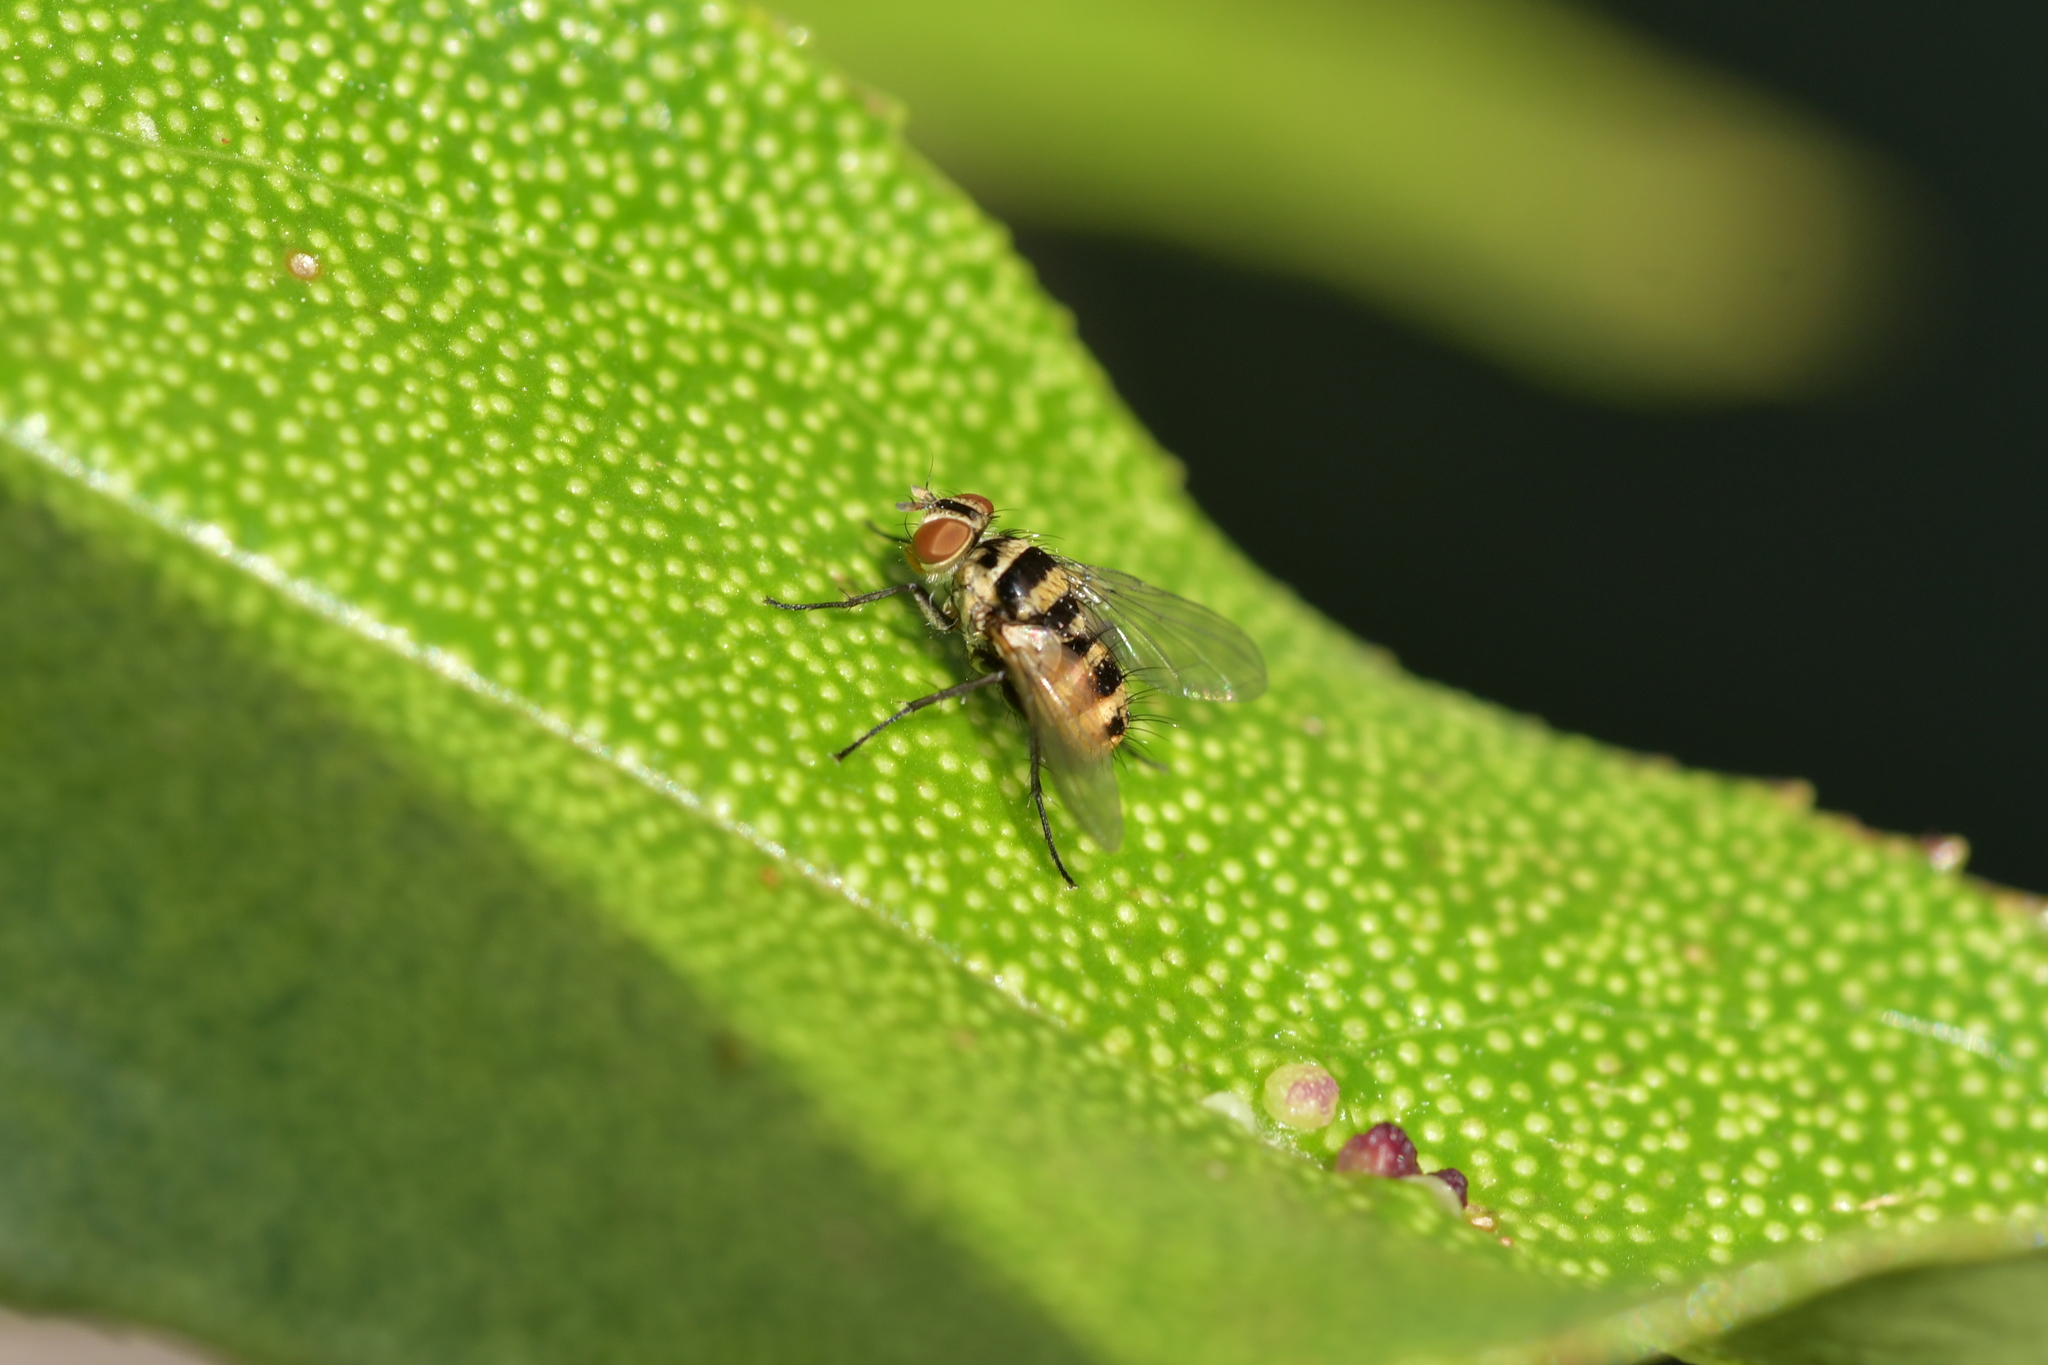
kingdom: Animalia
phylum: Arthropoda
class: Insecta
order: Diptera
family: Tachinidae
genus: Trigonospila
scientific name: Trigonospila brevifacies
